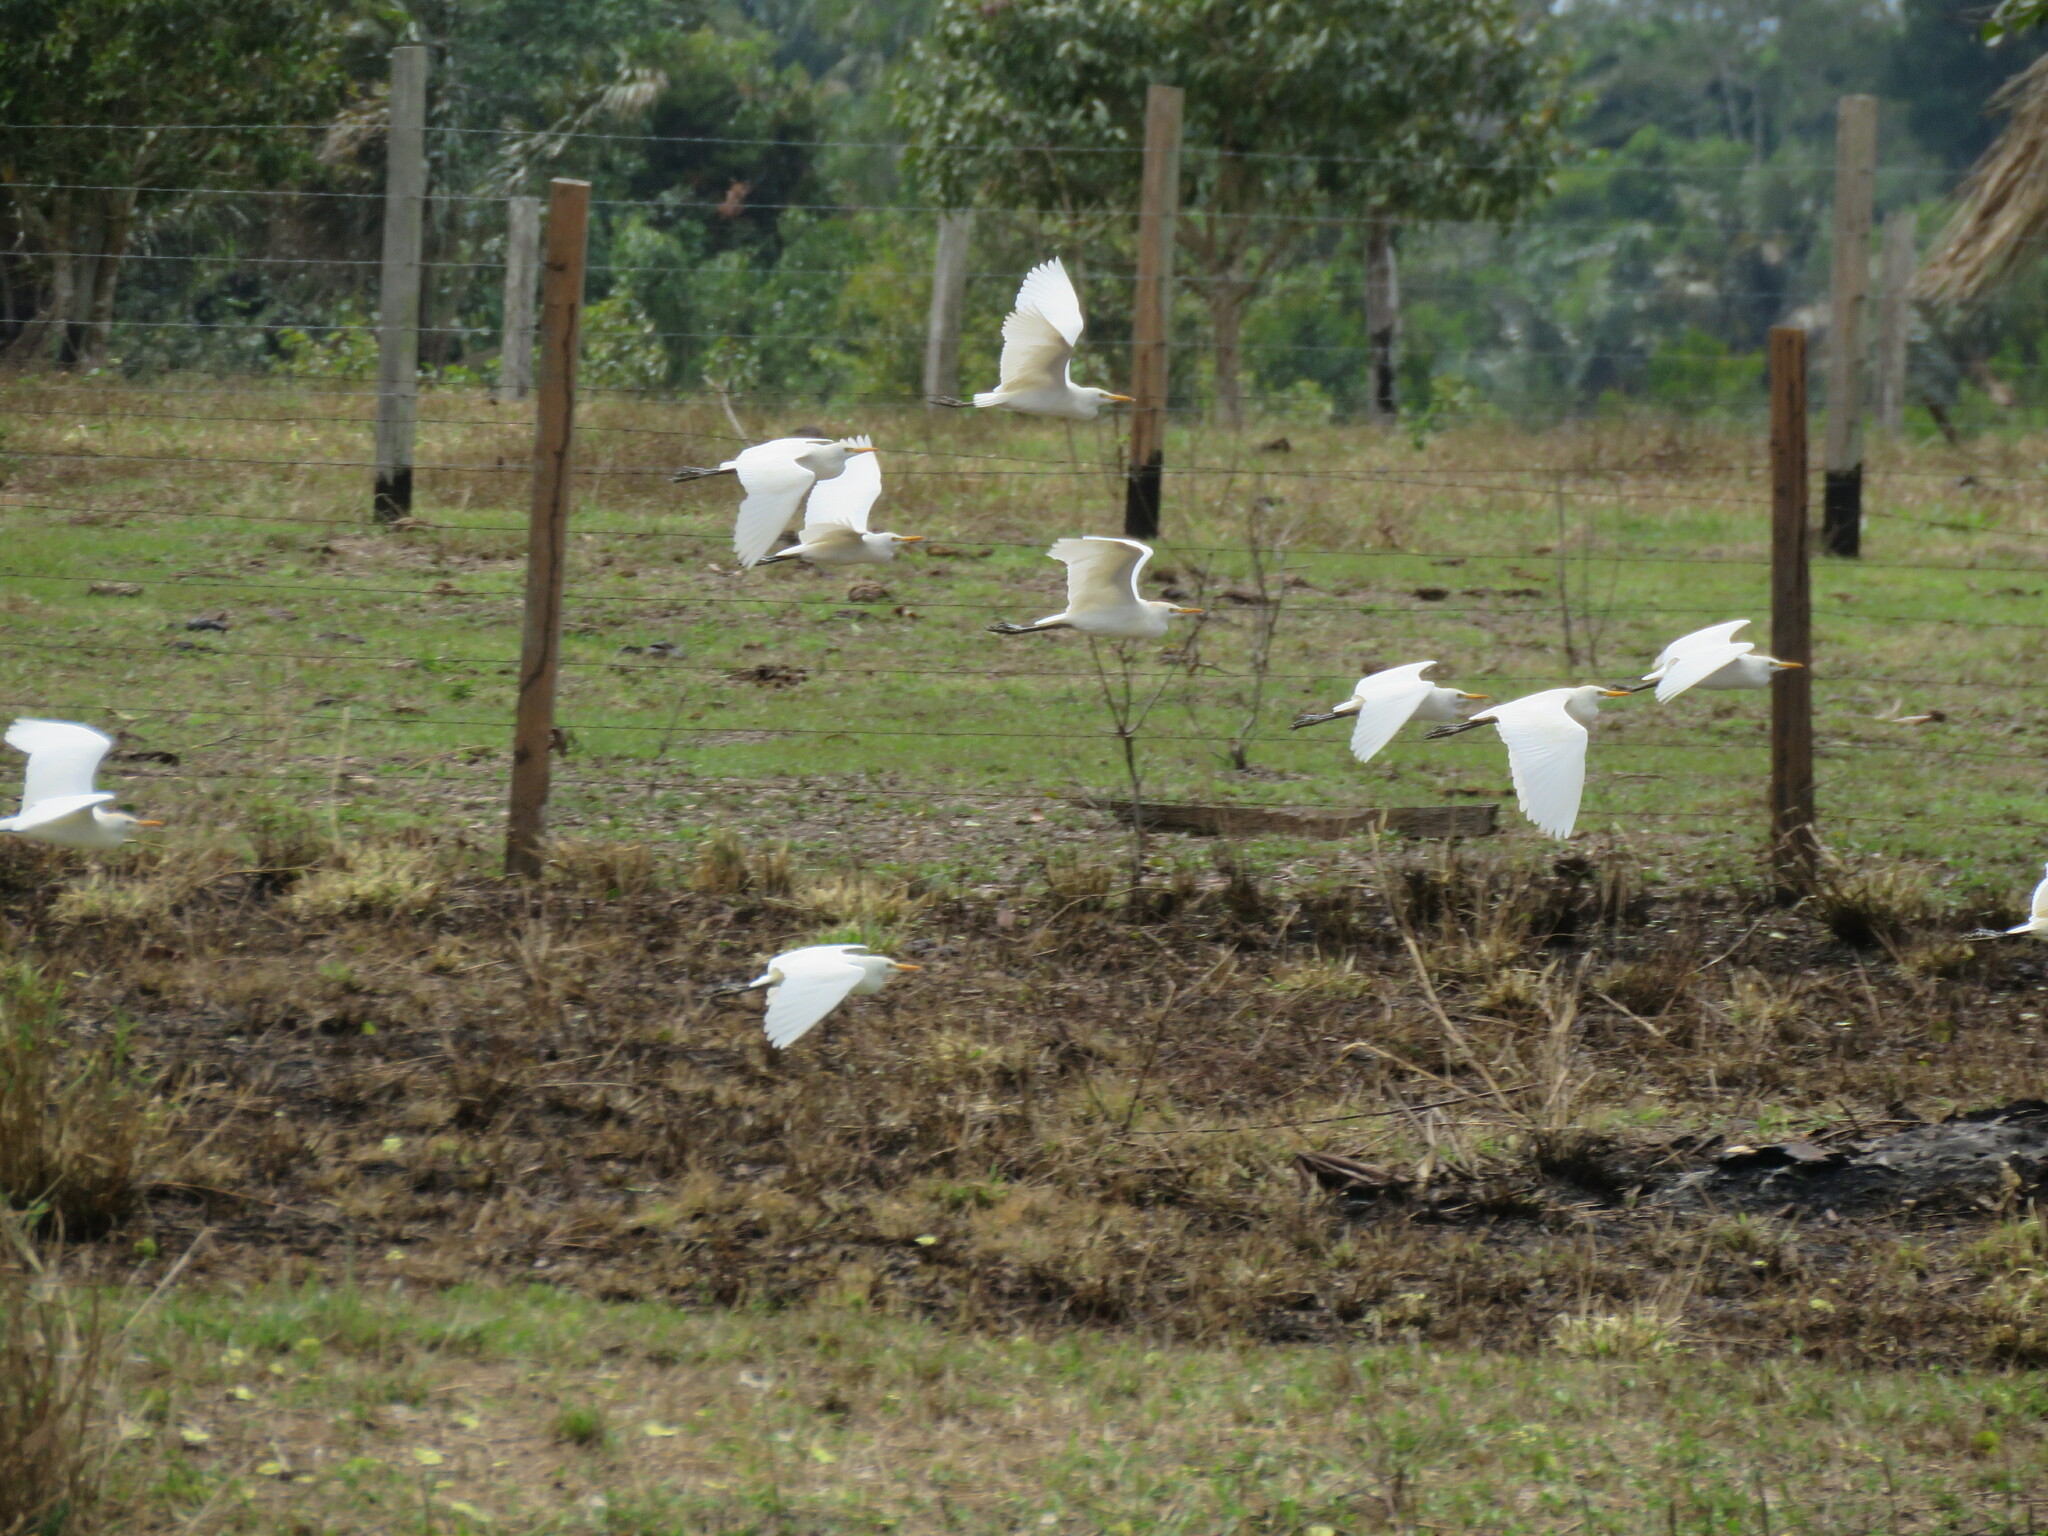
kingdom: Animalia
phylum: Chordata
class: Aves
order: Pelecaniformes
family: Ardeidae
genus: Bubulcus
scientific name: Bubulcus ibis
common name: Cattle egret
